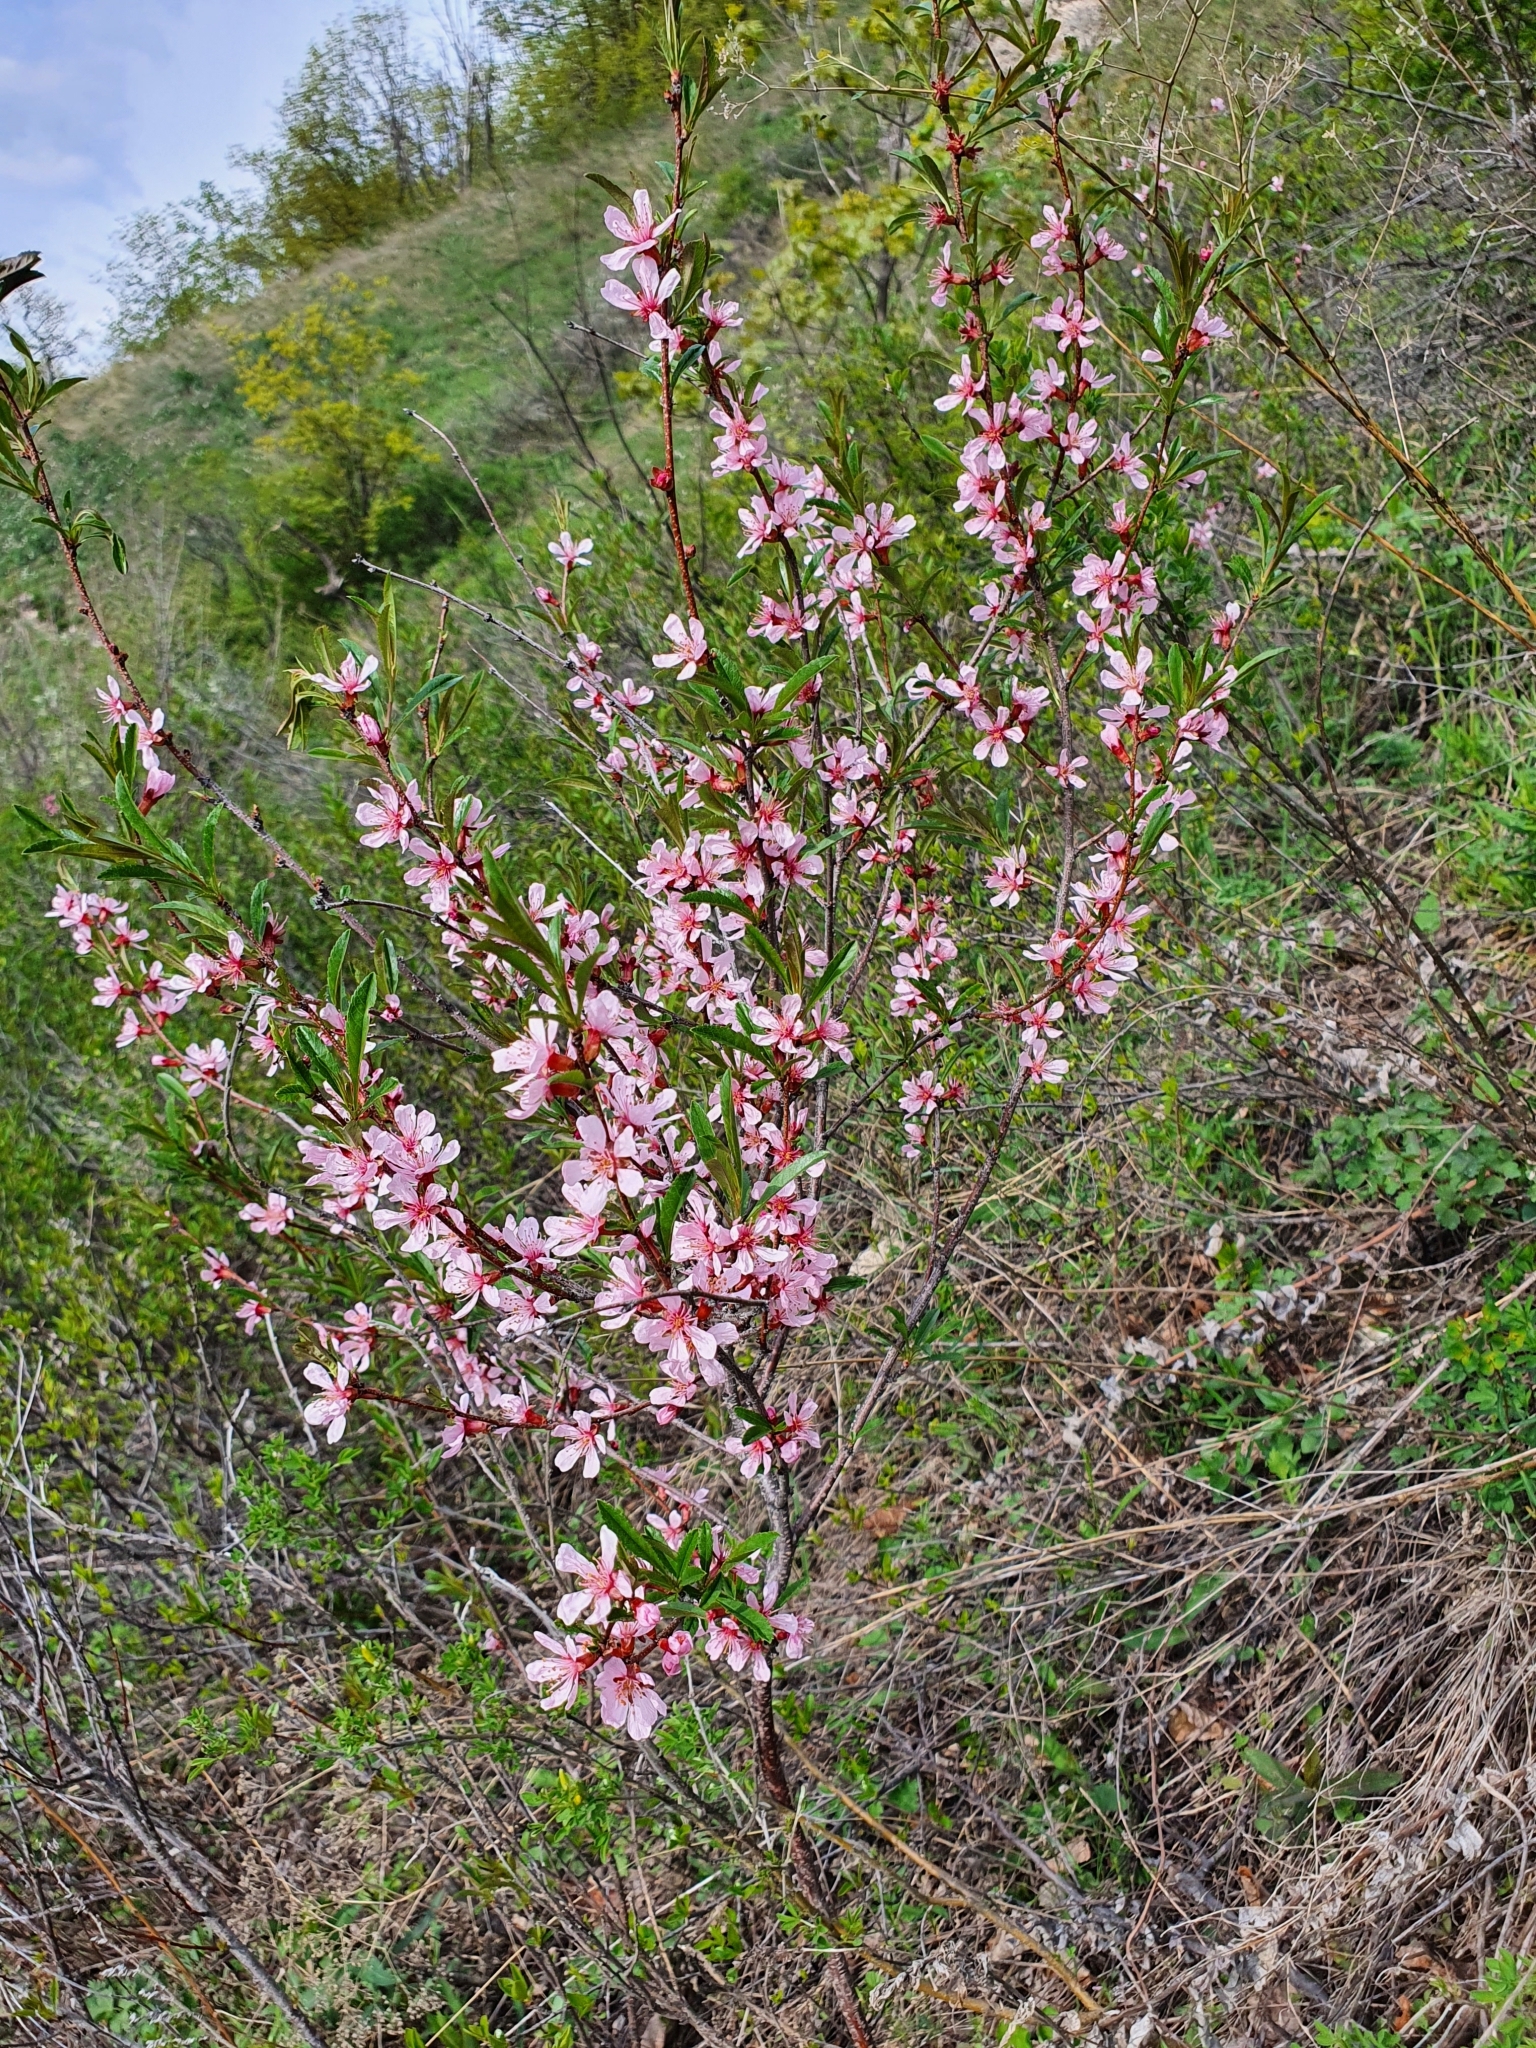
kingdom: Plantae
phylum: Tracheophyta
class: Magnoliopsida
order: Rosales
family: Rosaceae
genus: Prunus
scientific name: Prunus tenella
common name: Dwarf russian almond
